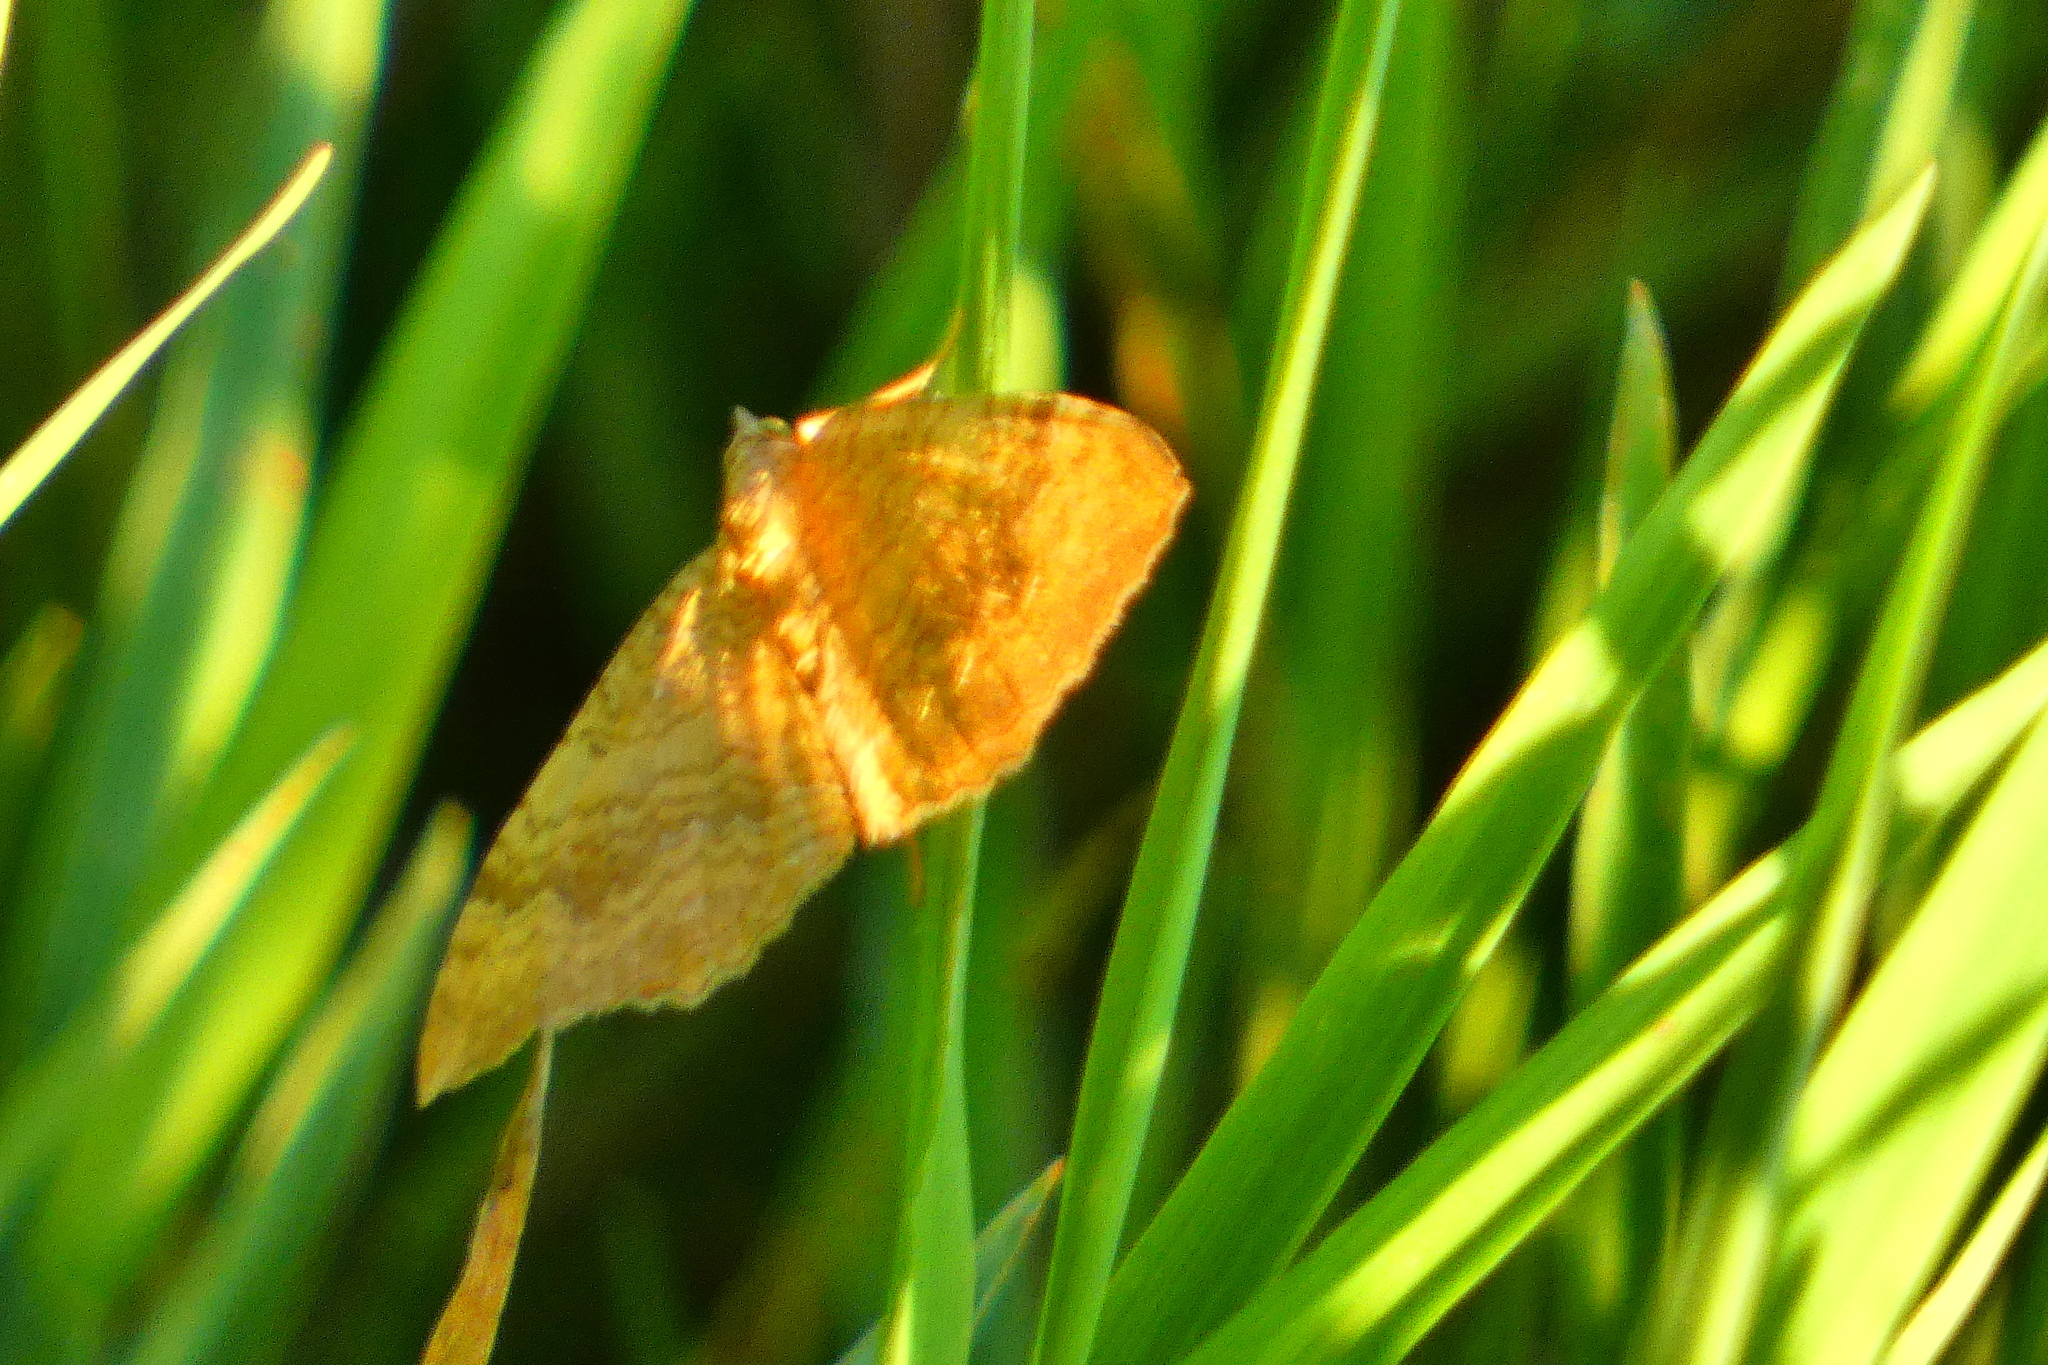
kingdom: Animalia
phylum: Arthropoda
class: Insecta
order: Lepidoptera
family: Geometridae
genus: Camptogramma
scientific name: Camptogramma bilineata
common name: Yellow shell
